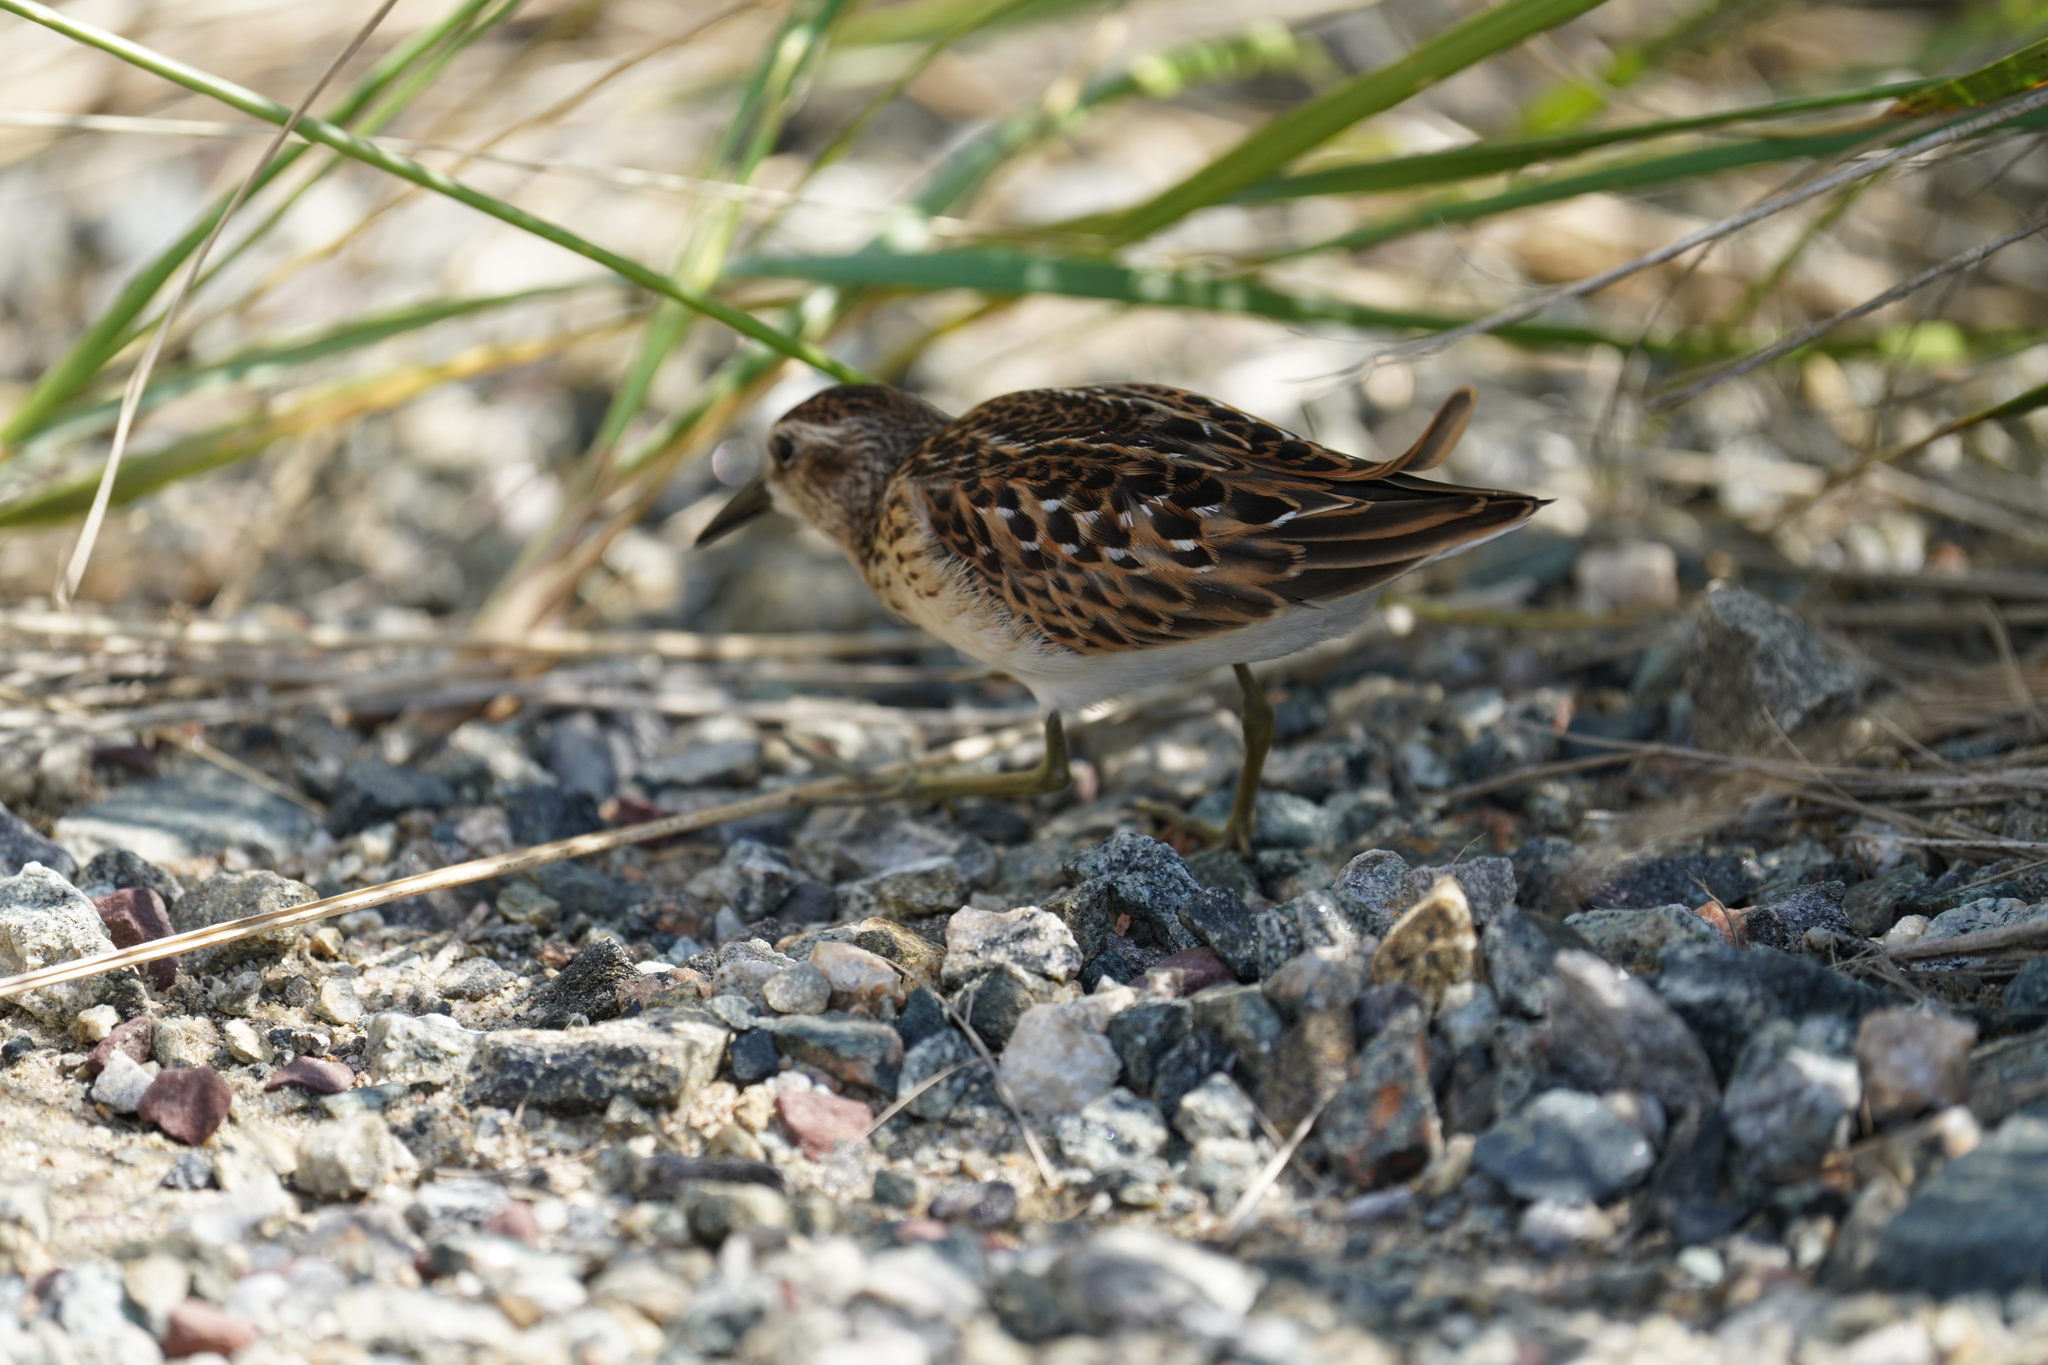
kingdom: Animalia
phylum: Chordata
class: Aves
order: Charadriiformes
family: Scolopacidae
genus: Calidris
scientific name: Calidris minutilla
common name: Least sandpiper
